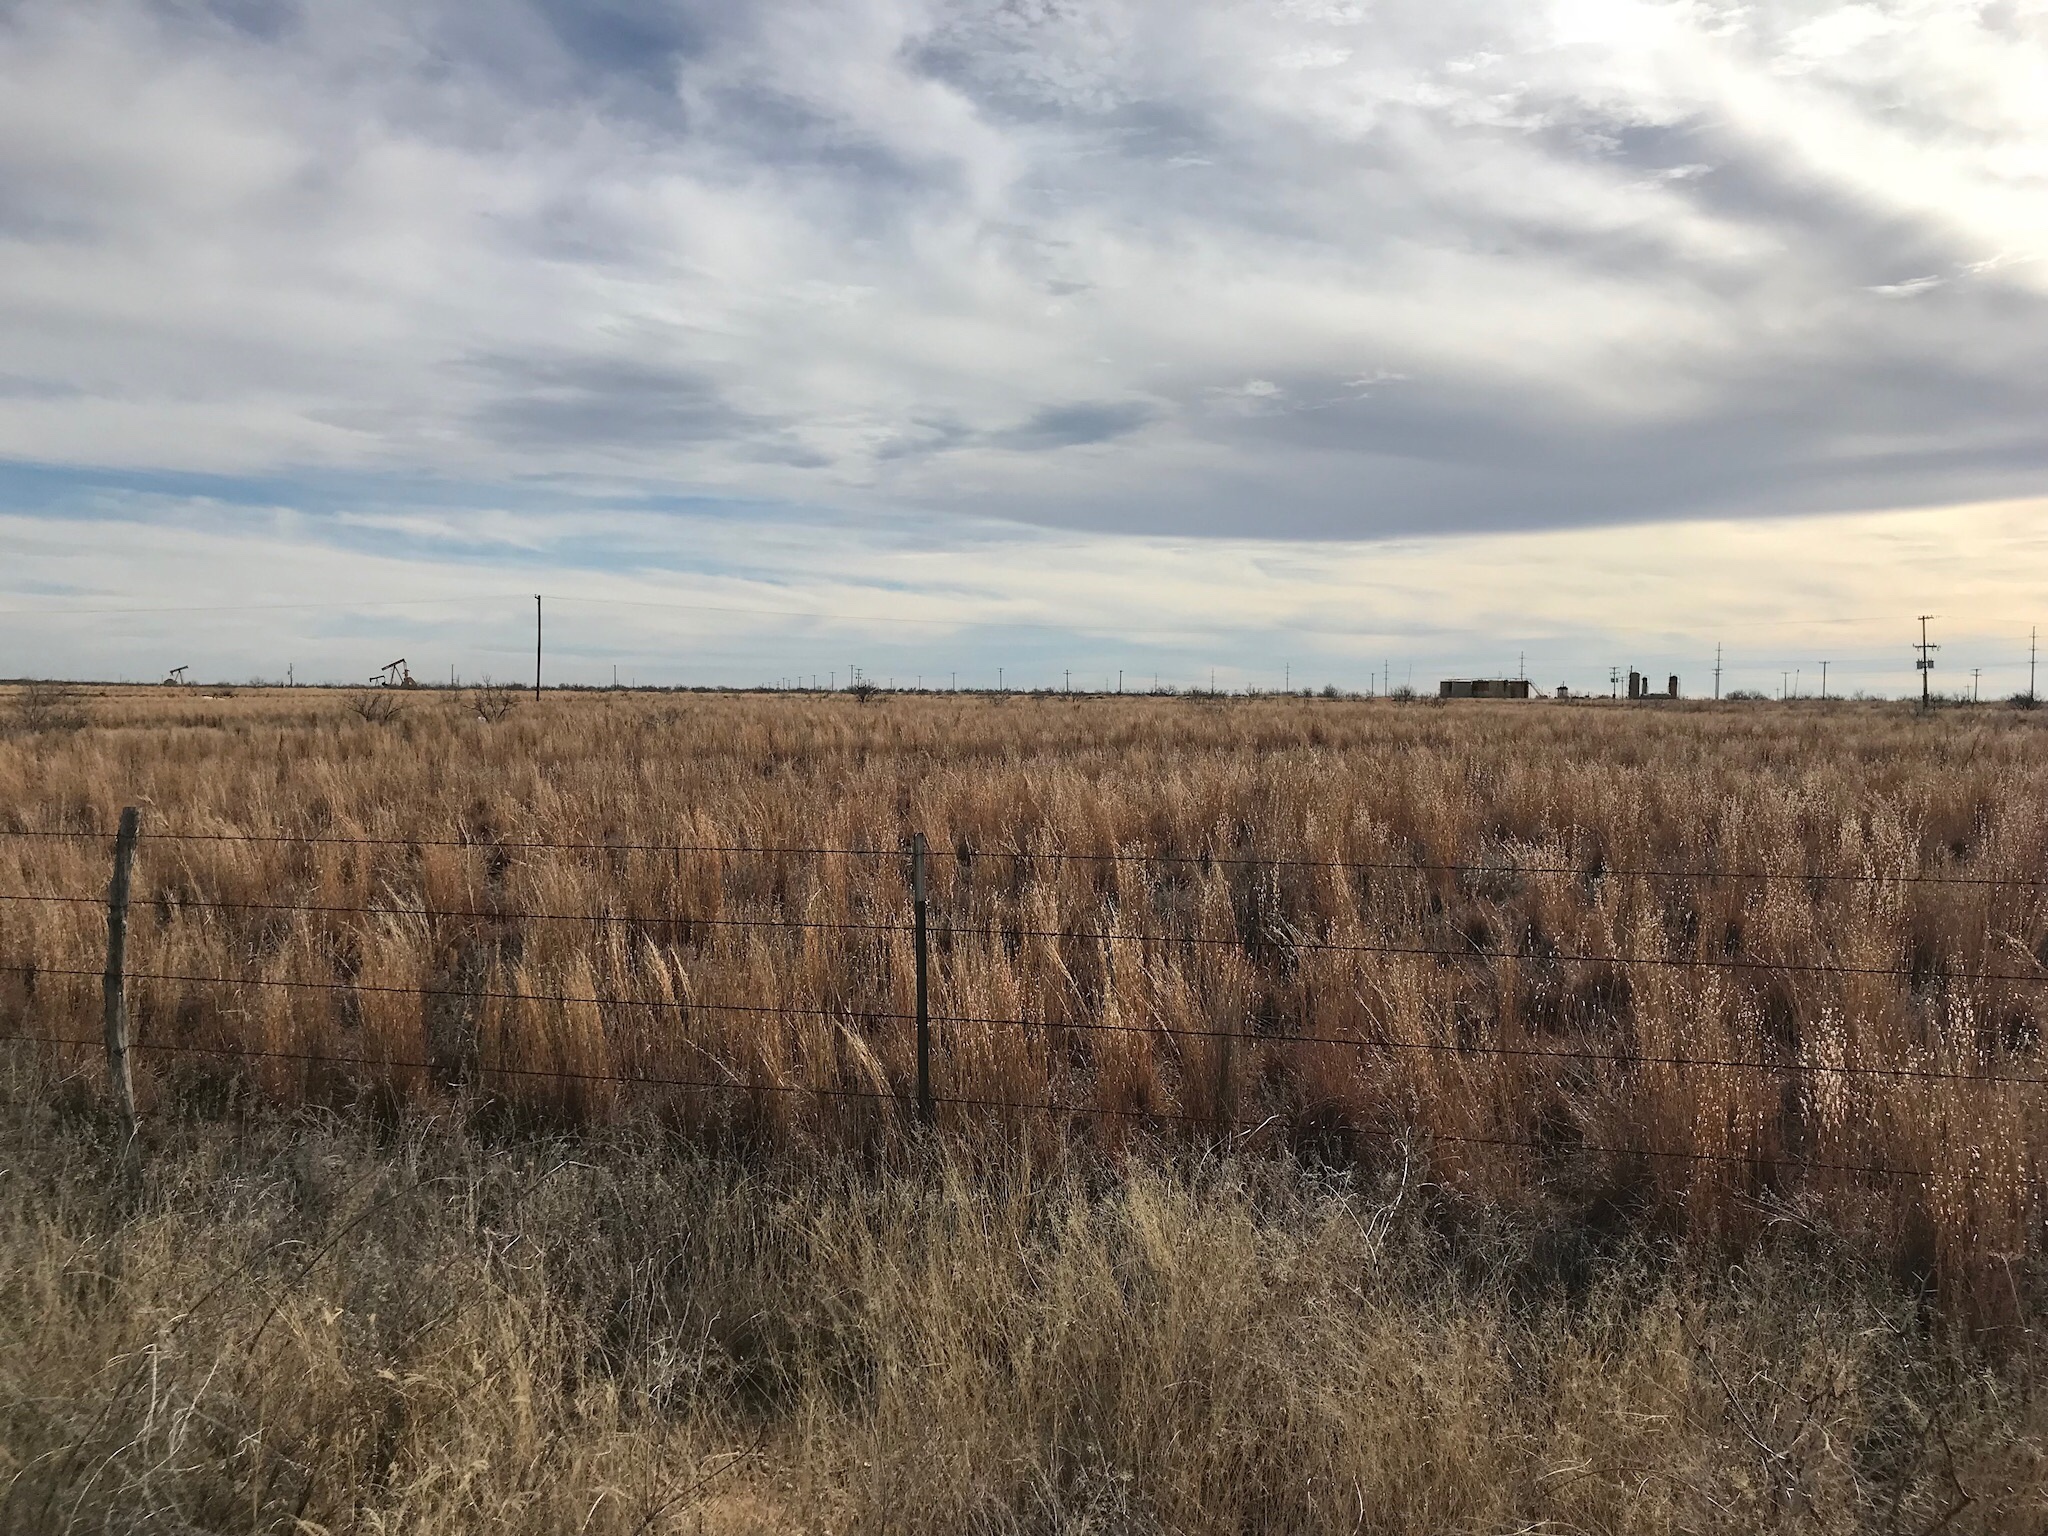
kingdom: Plantae
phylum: Tracheophyta
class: Liliopsida
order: Poales
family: Poaceae
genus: Schizachyrium
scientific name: Schizachyrium scoparium
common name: Little bluestem
